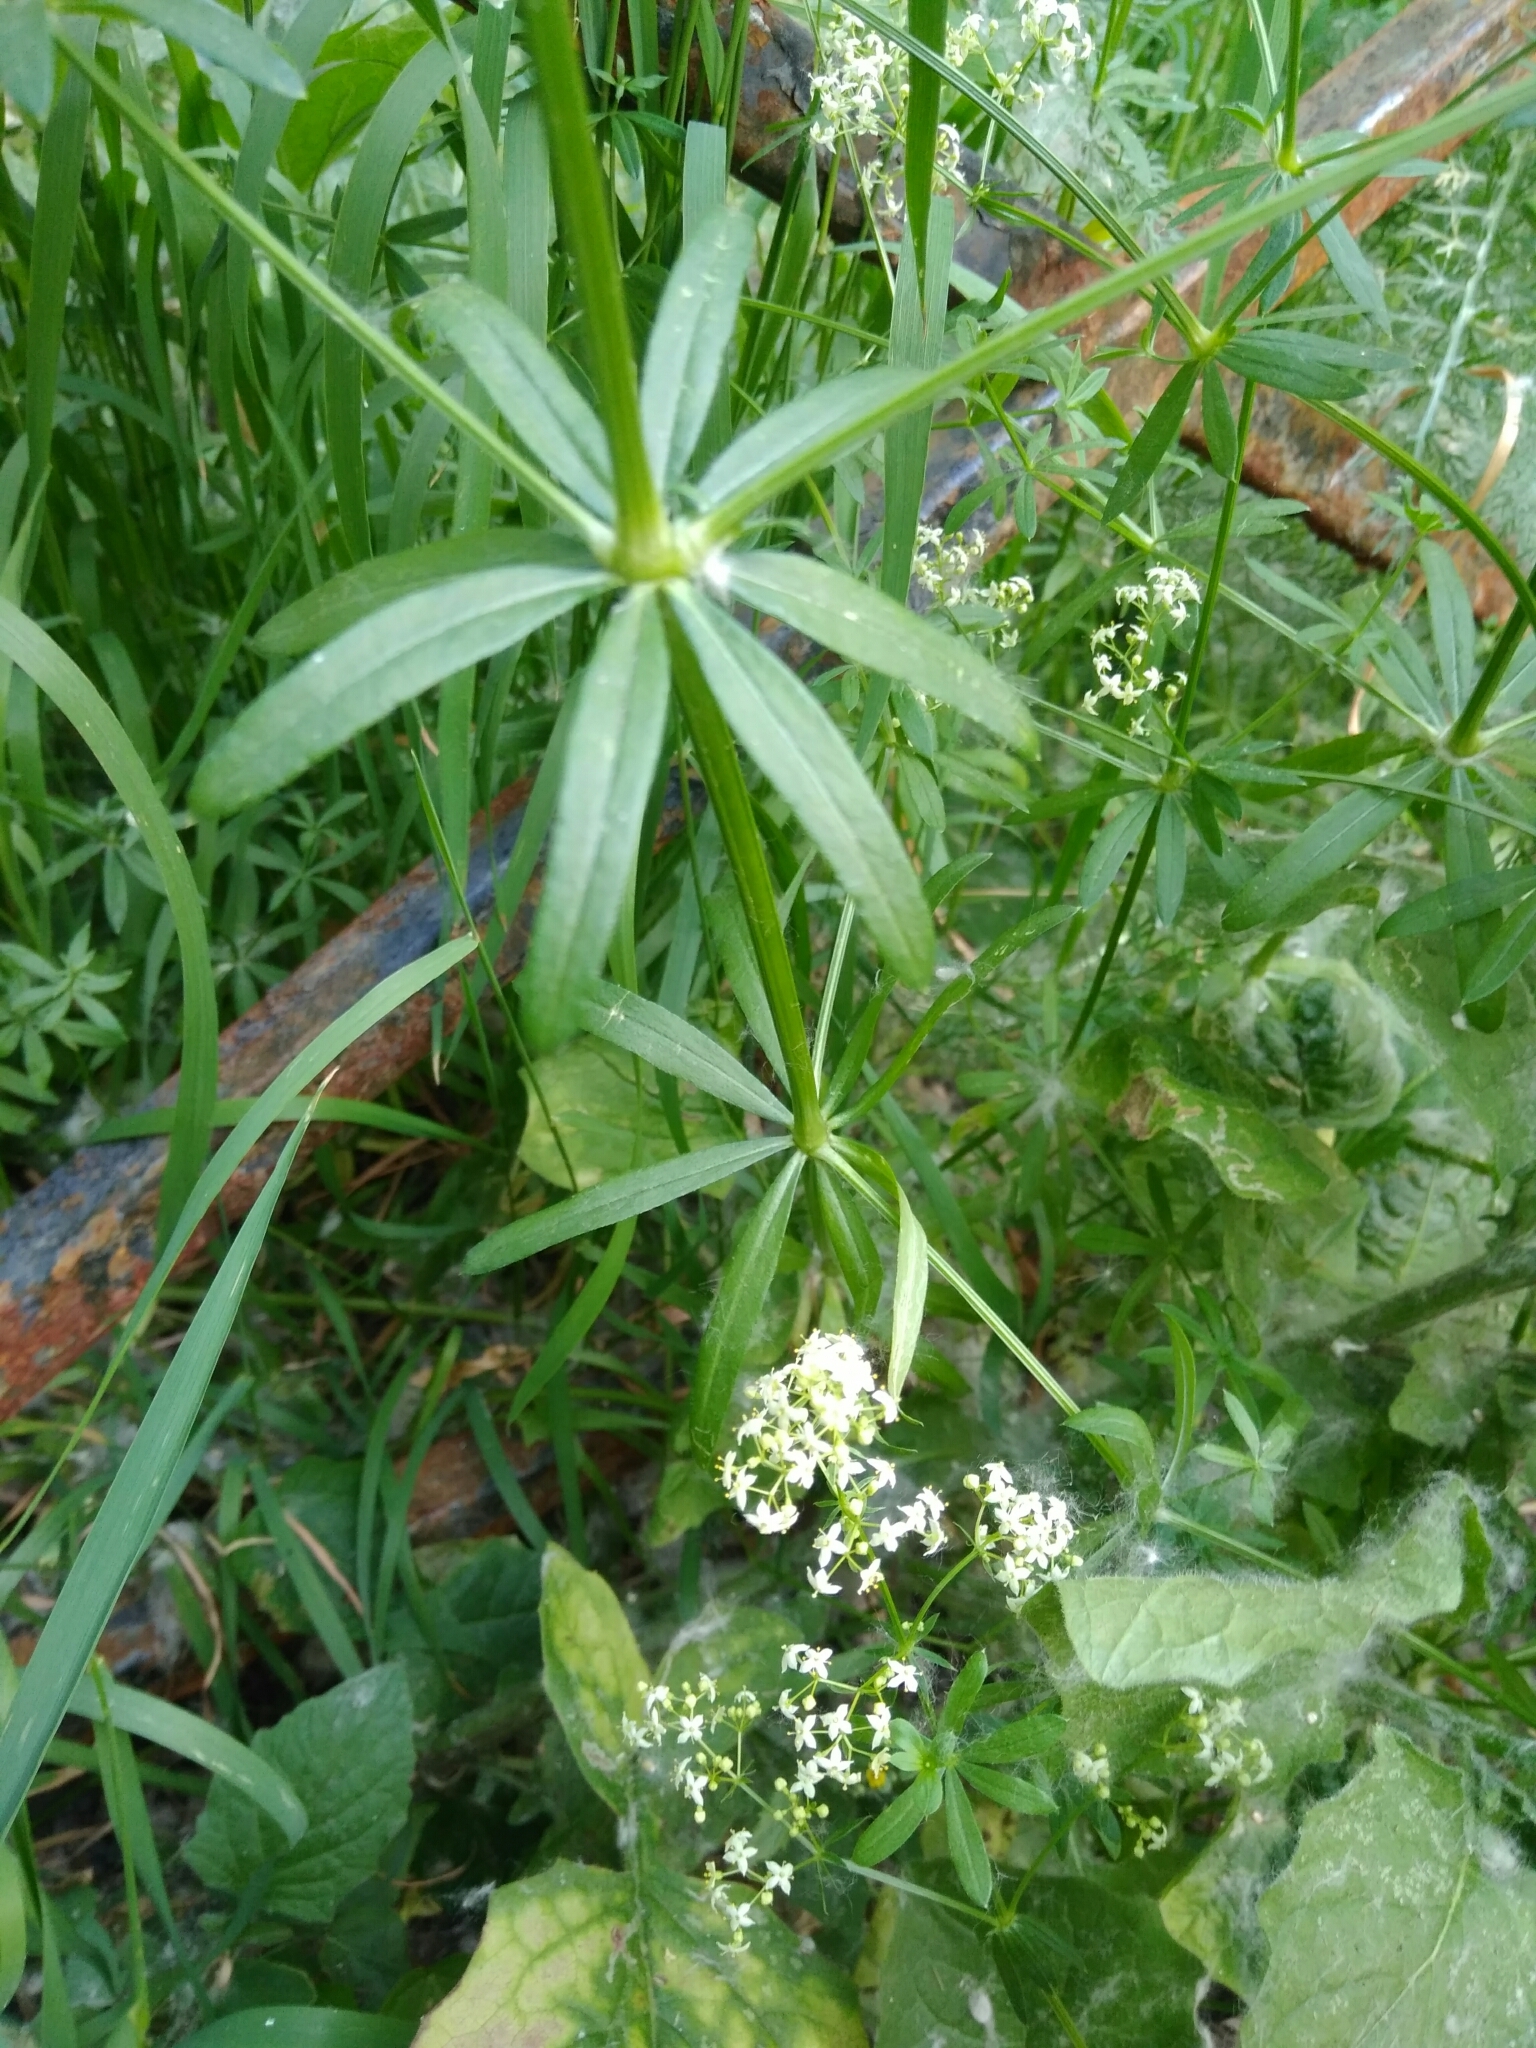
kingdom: Plantae
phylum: Tracheophyta
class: Magnoliopsida
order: Gentianales
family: Rubiaceae
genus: Galium
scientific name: Galium mollugo
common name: Hedge bedstraw
